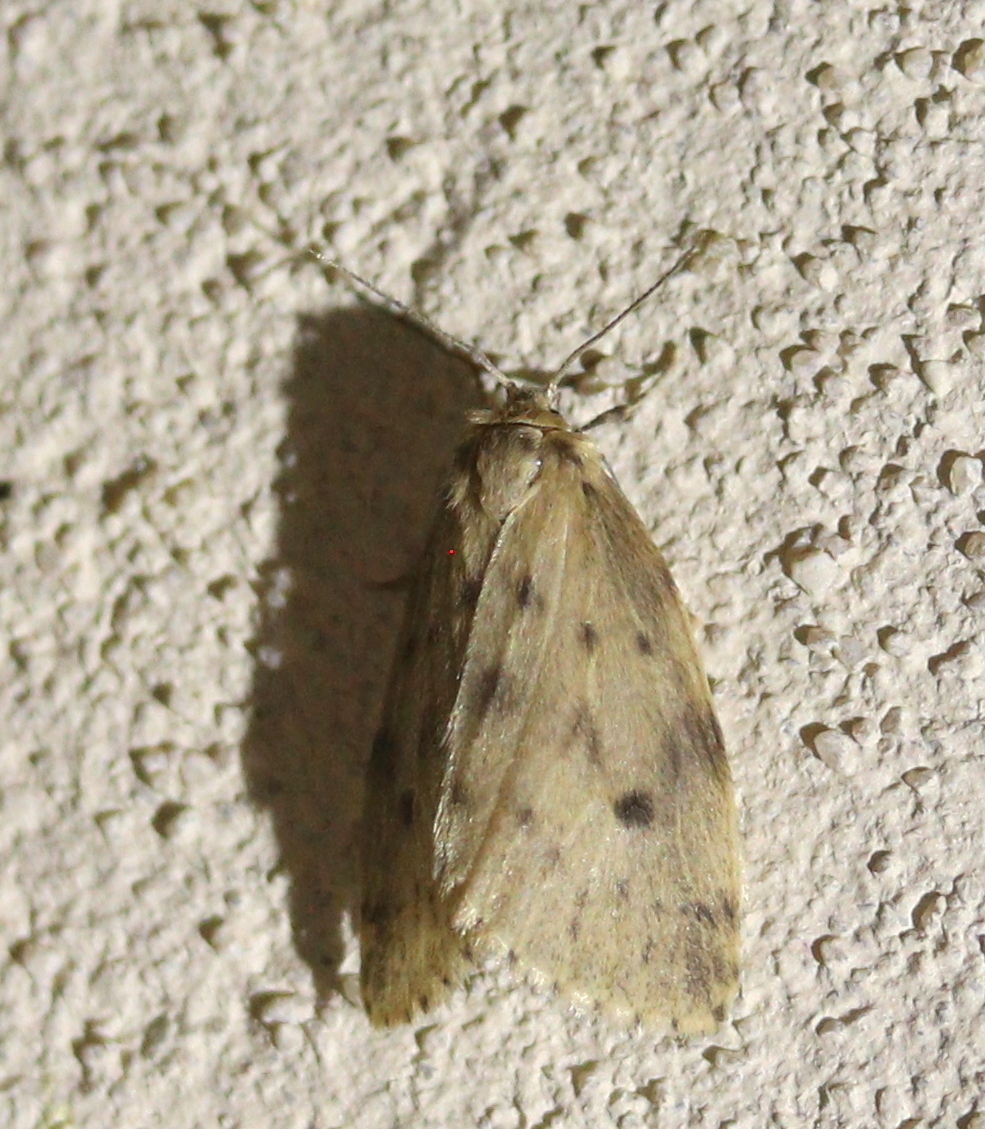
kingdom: Animalia
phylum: Arthropoda
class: Insecta
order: Lepidoptera
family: Erebidae
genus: Thumatha
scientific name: Thumatha senex
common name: Round-winged muslin
